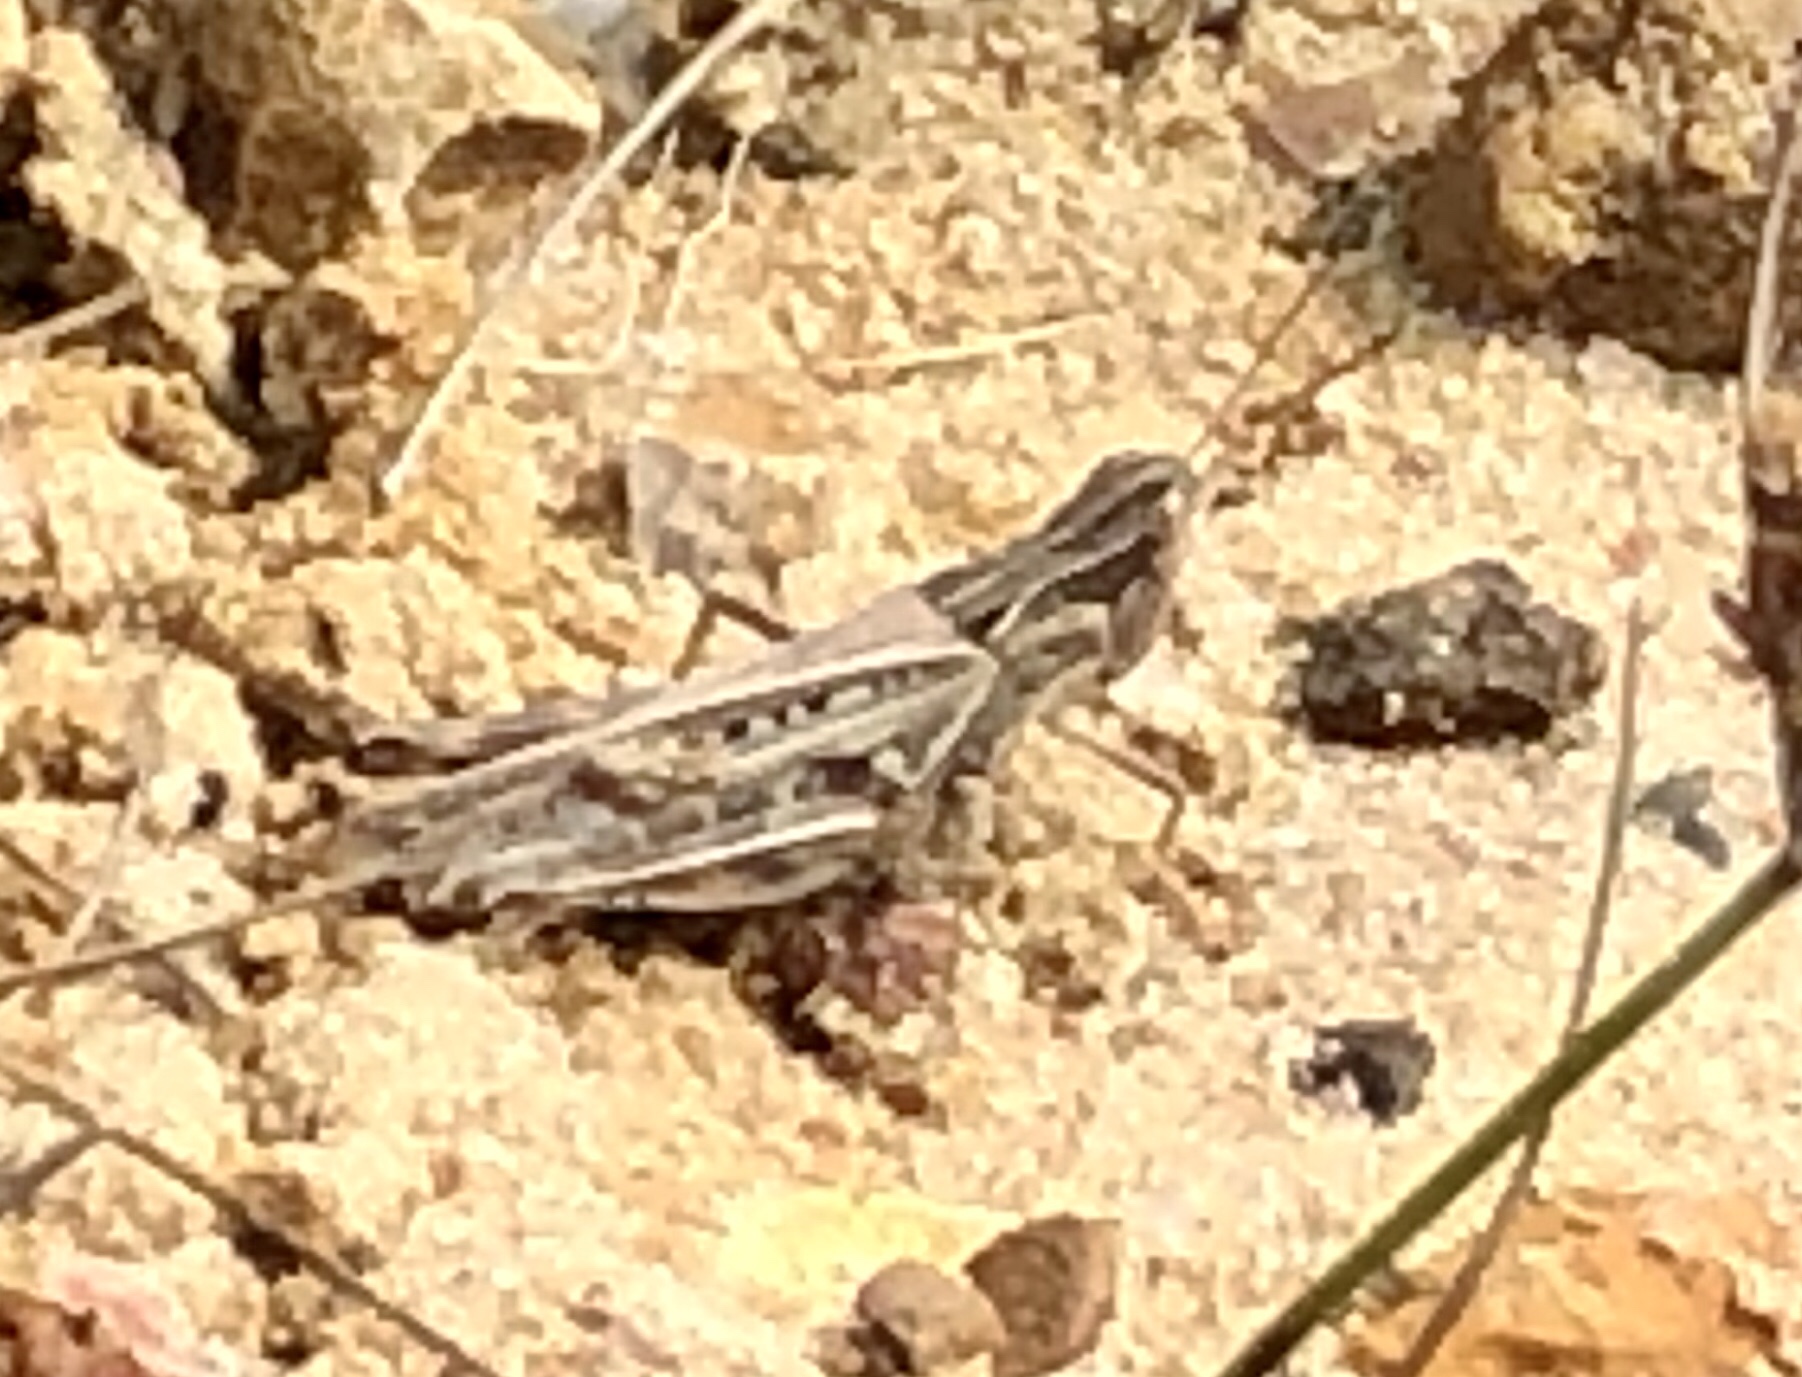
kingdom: Animalia
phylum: Arthropoda
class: Insecta
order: Orthoptera
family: Acrididae
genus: Orphulella
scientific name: Orphulella pelidna
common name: Spotted-wing grasshopper
